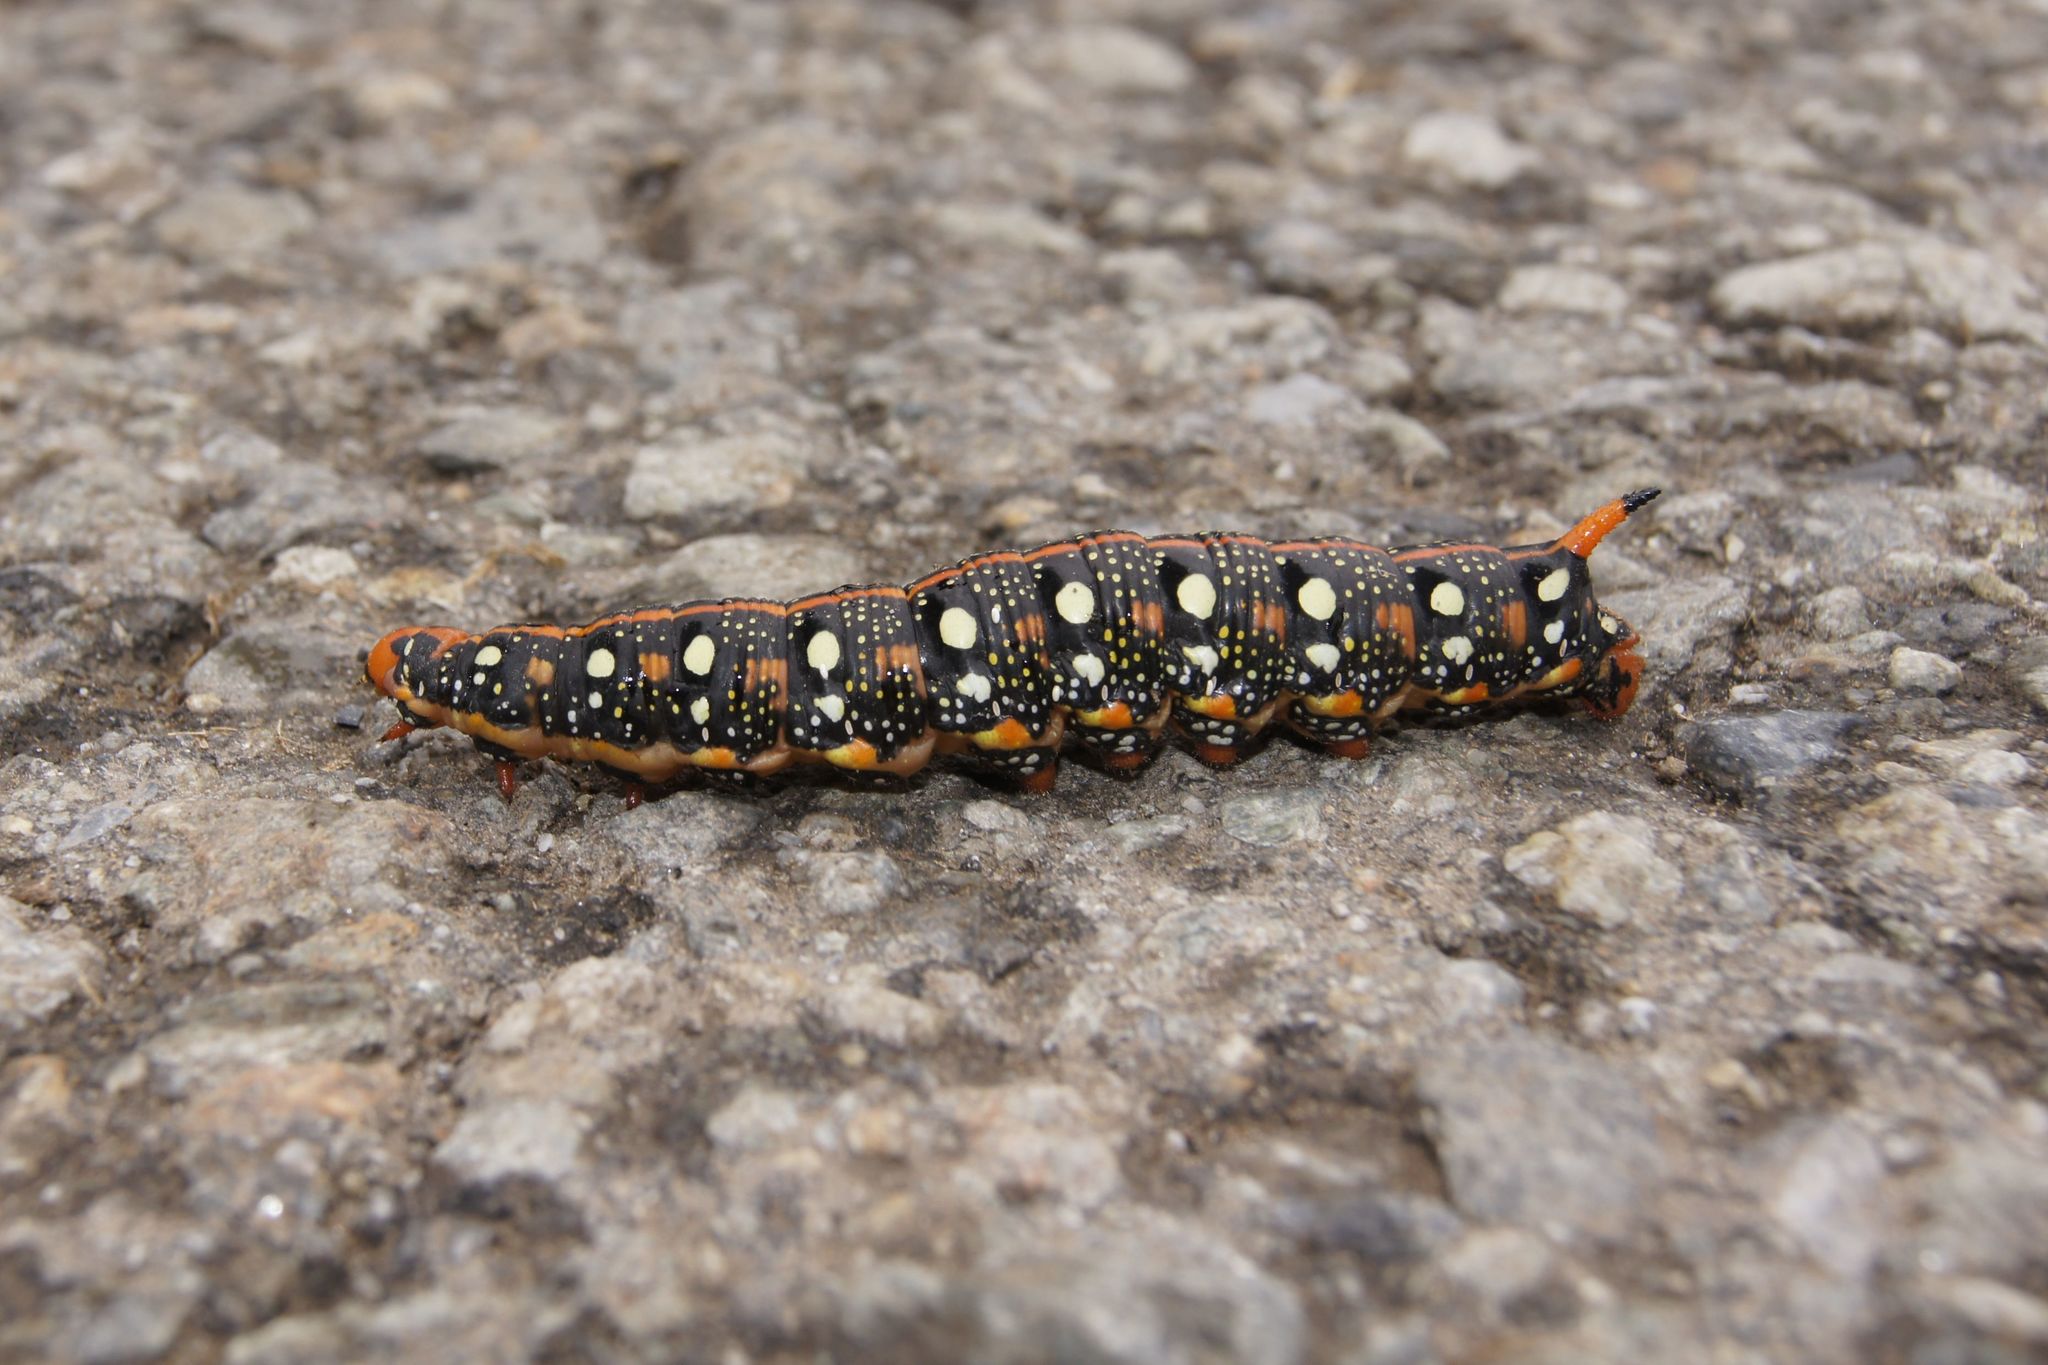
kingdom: Animalia
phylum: Arthropoda
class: Insecta
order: Lepidoptera
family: Sphingidae
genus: Hyles
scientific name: Hyles euphorbiae
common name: Spurge hawk-moth
